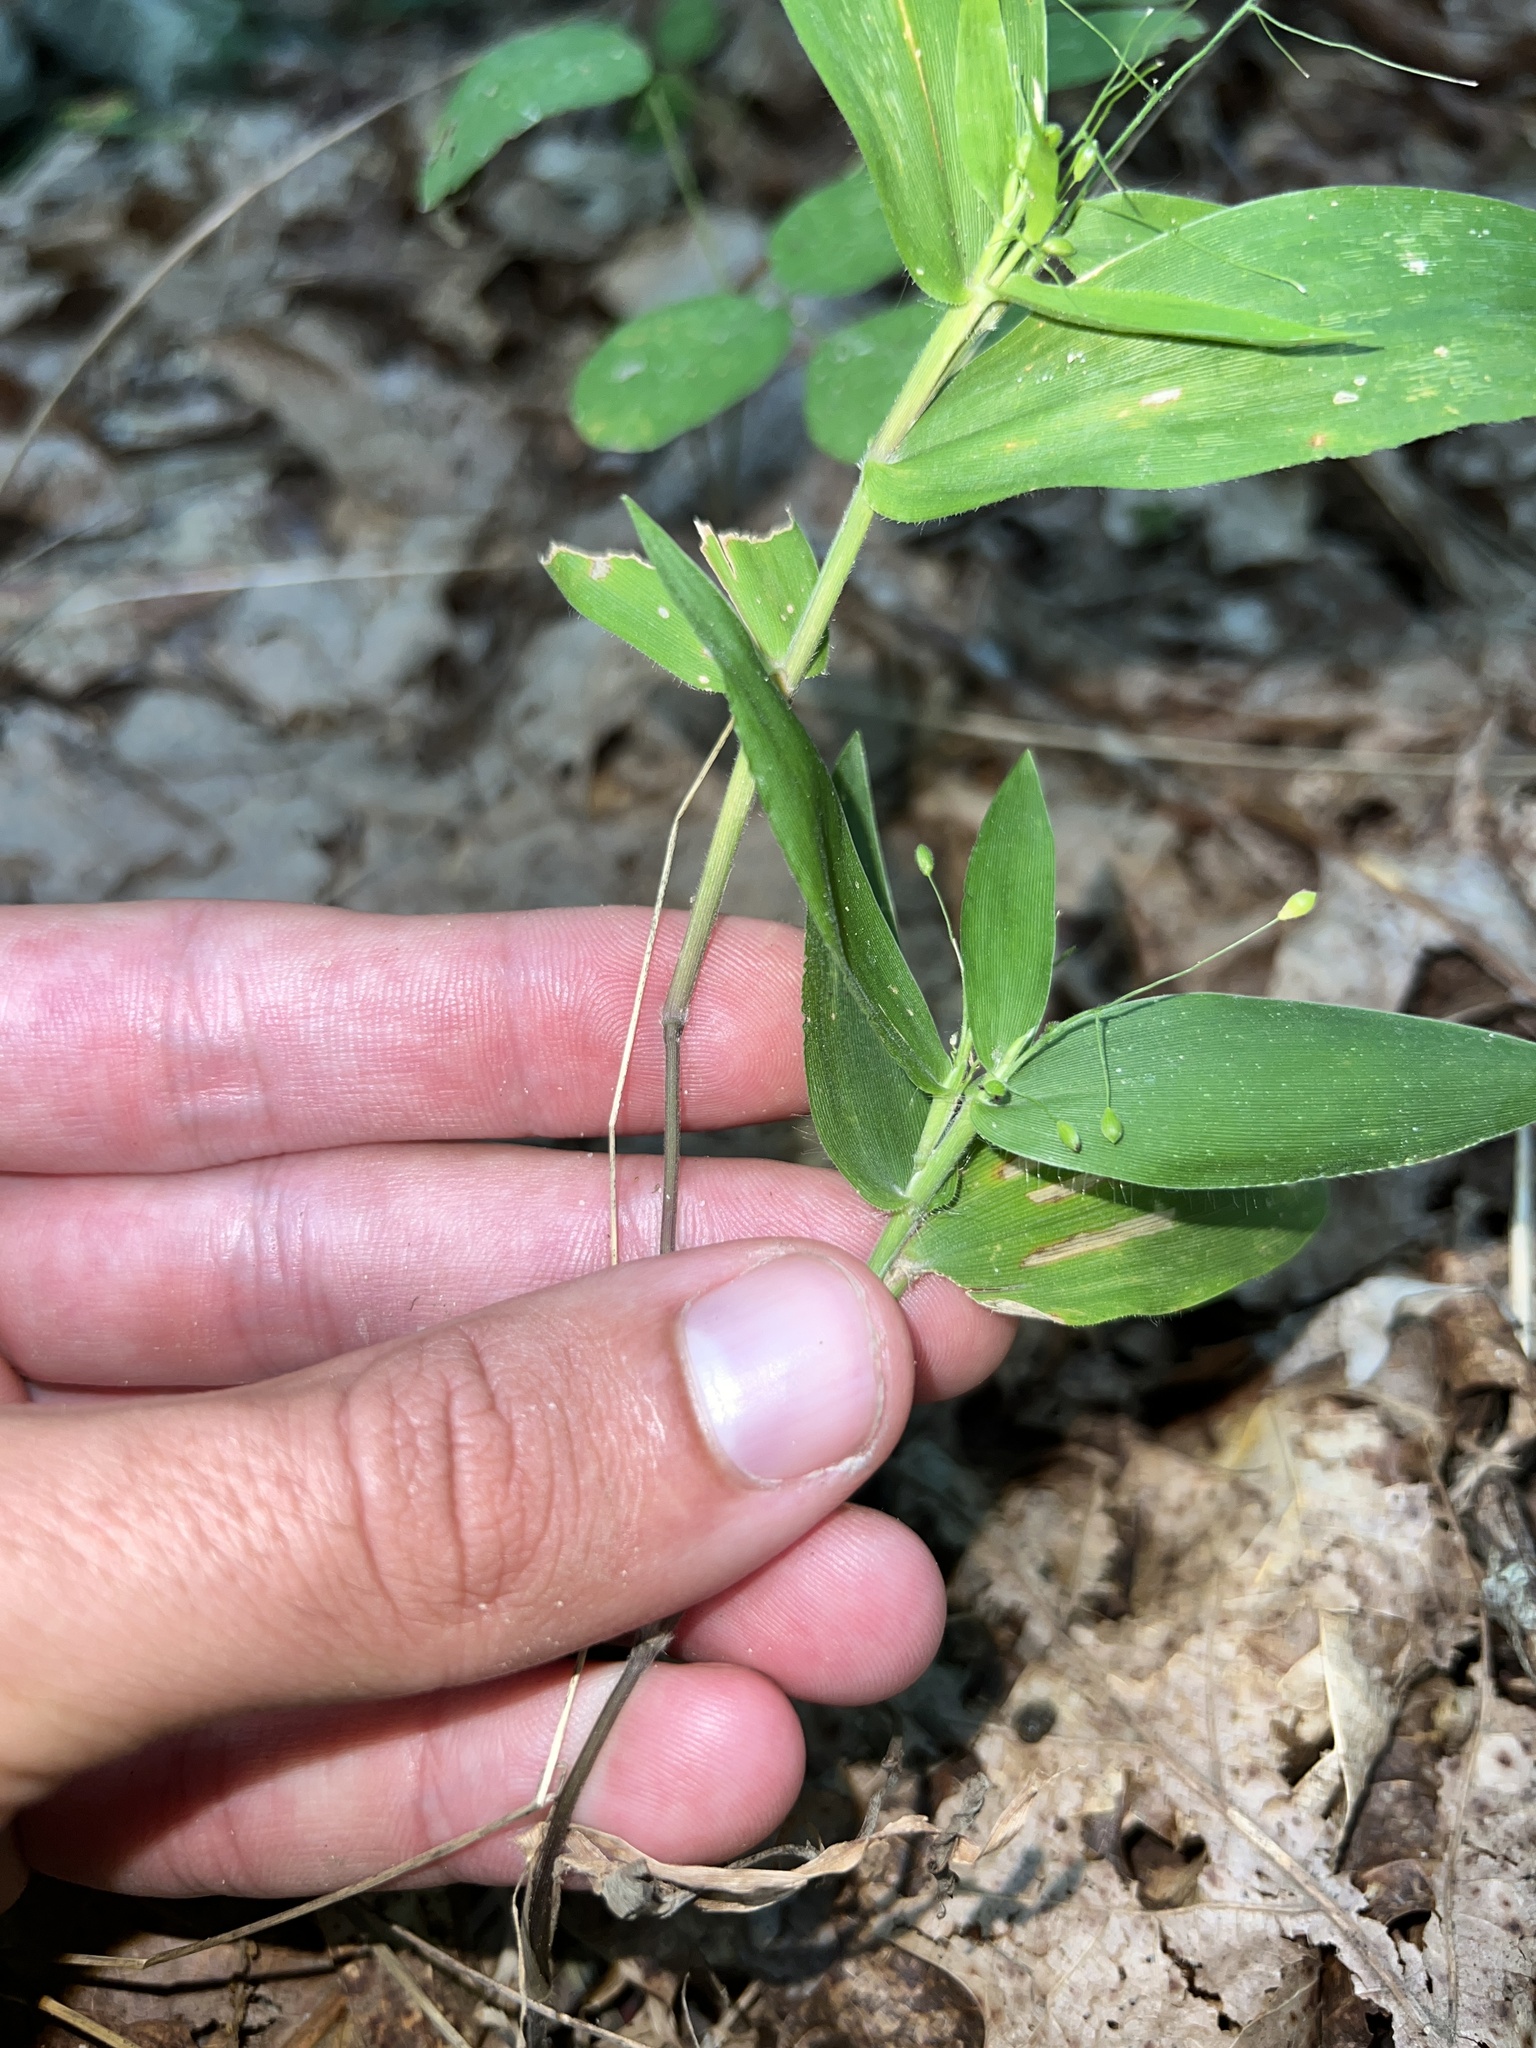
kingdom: Plantae
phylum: Tracheophyta
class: Liliopsida
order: Poales
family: Poaceae
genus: Dichanthelium
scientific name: Dichanthelium commutatum
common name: Variable witchgrass
